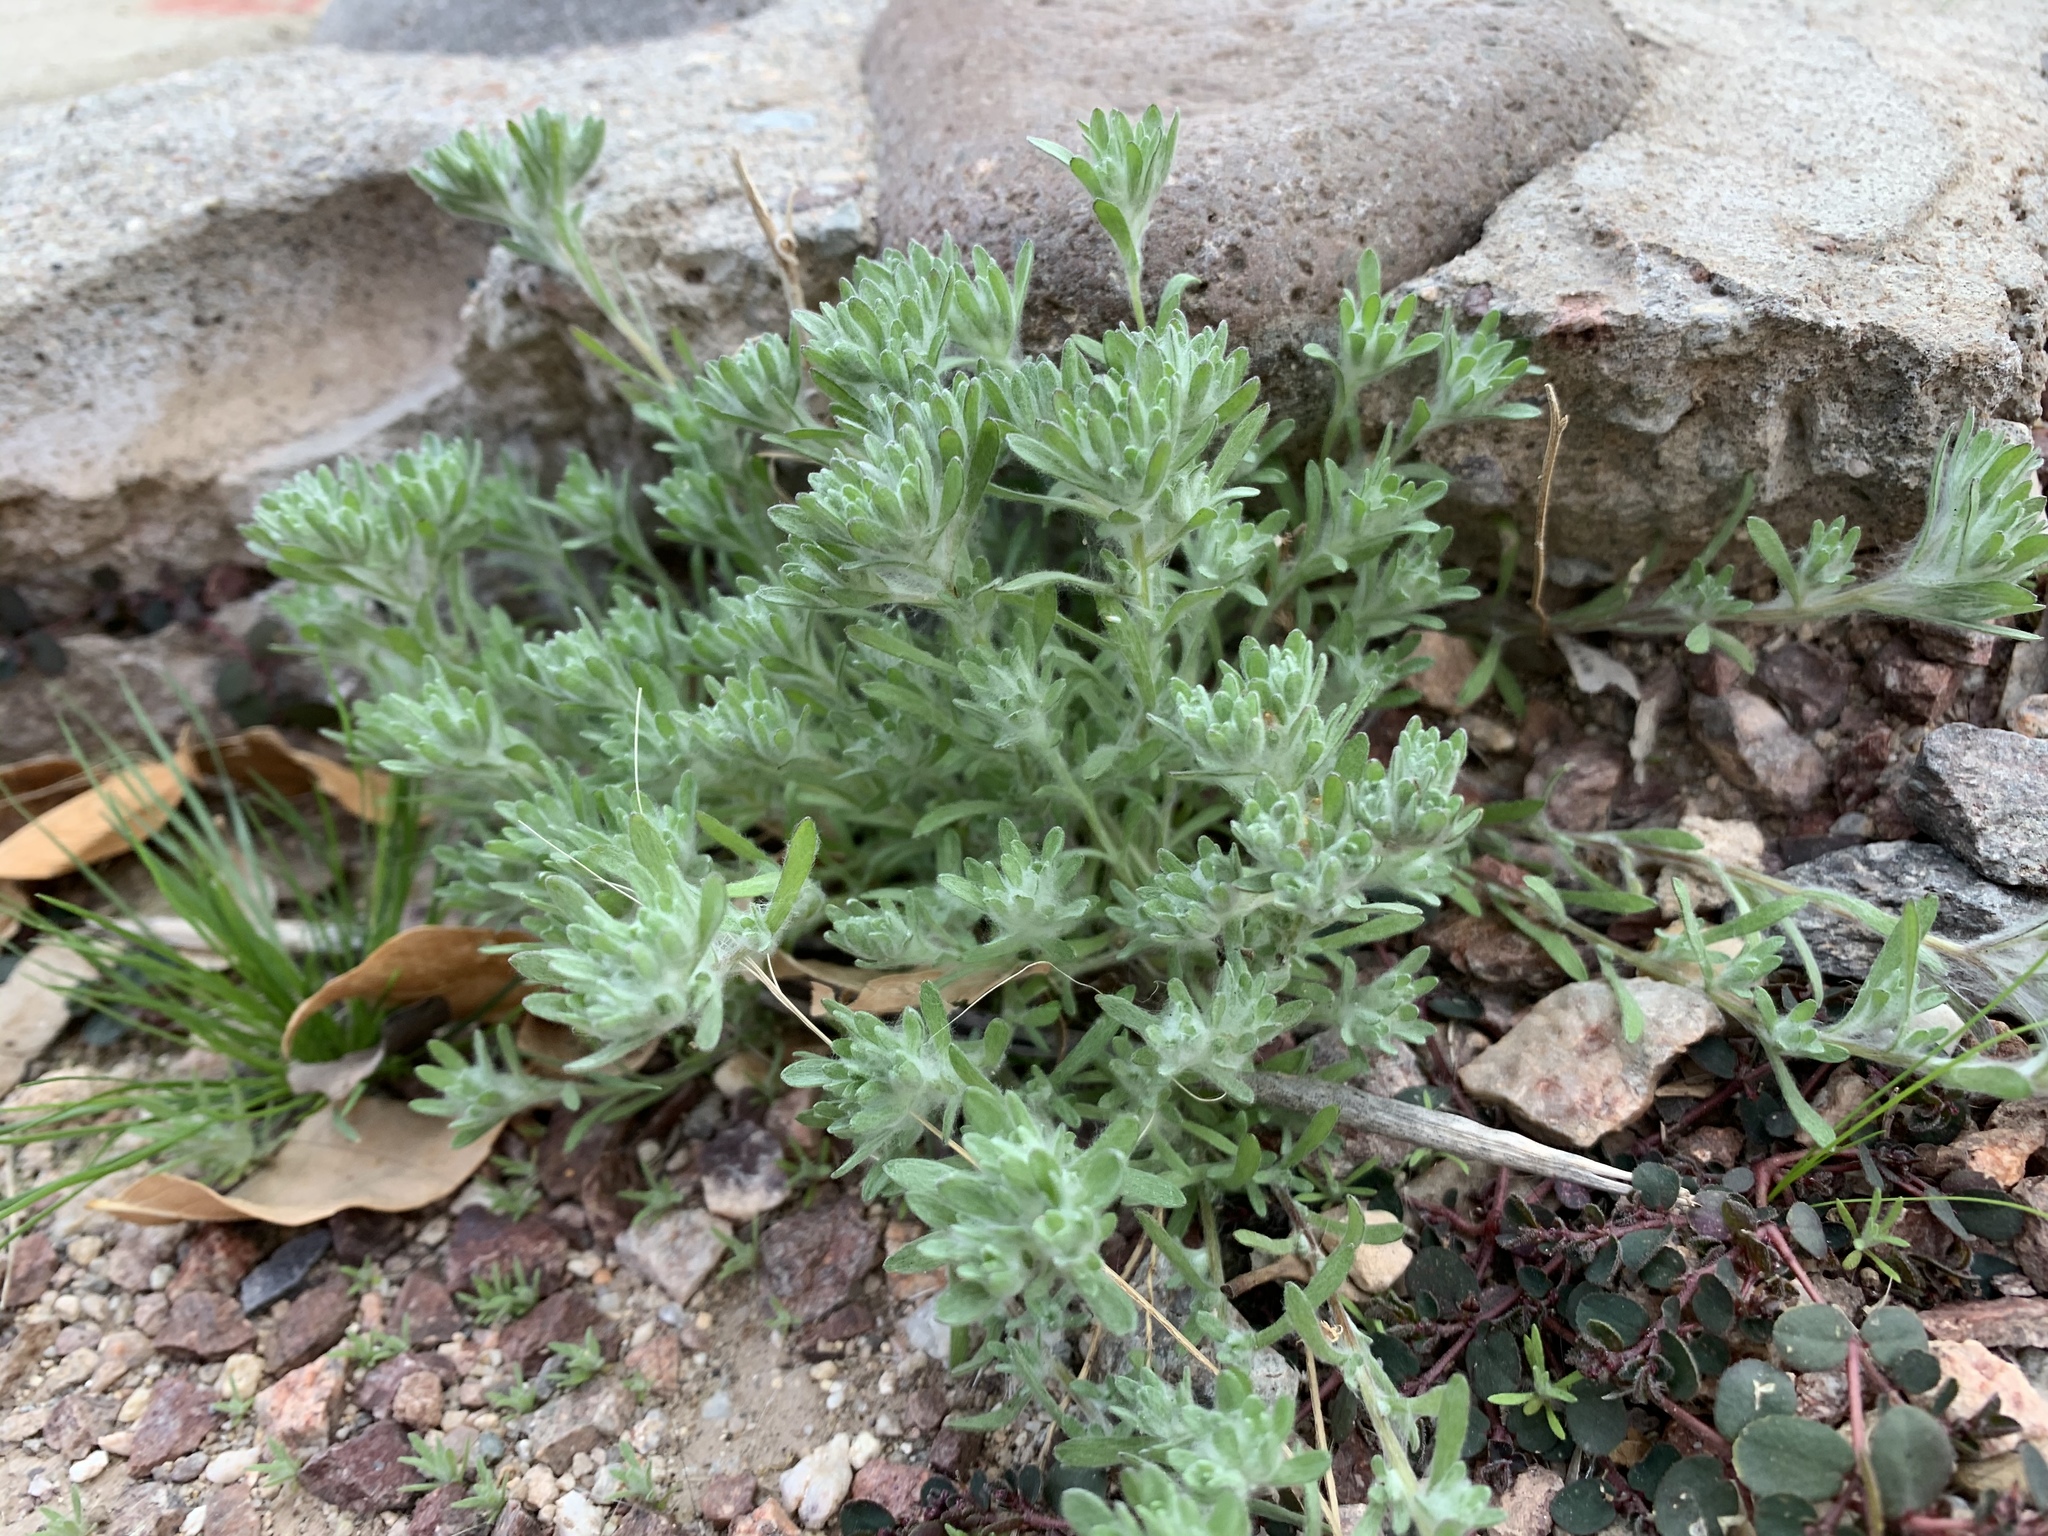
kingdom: Plantae
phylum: Tracheophyta
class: Magnoliopsida
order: Asterales
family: Asteraceae
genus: Lasiopogon
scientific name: Lasiopogon glomerulatus
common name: Green cat thorn
